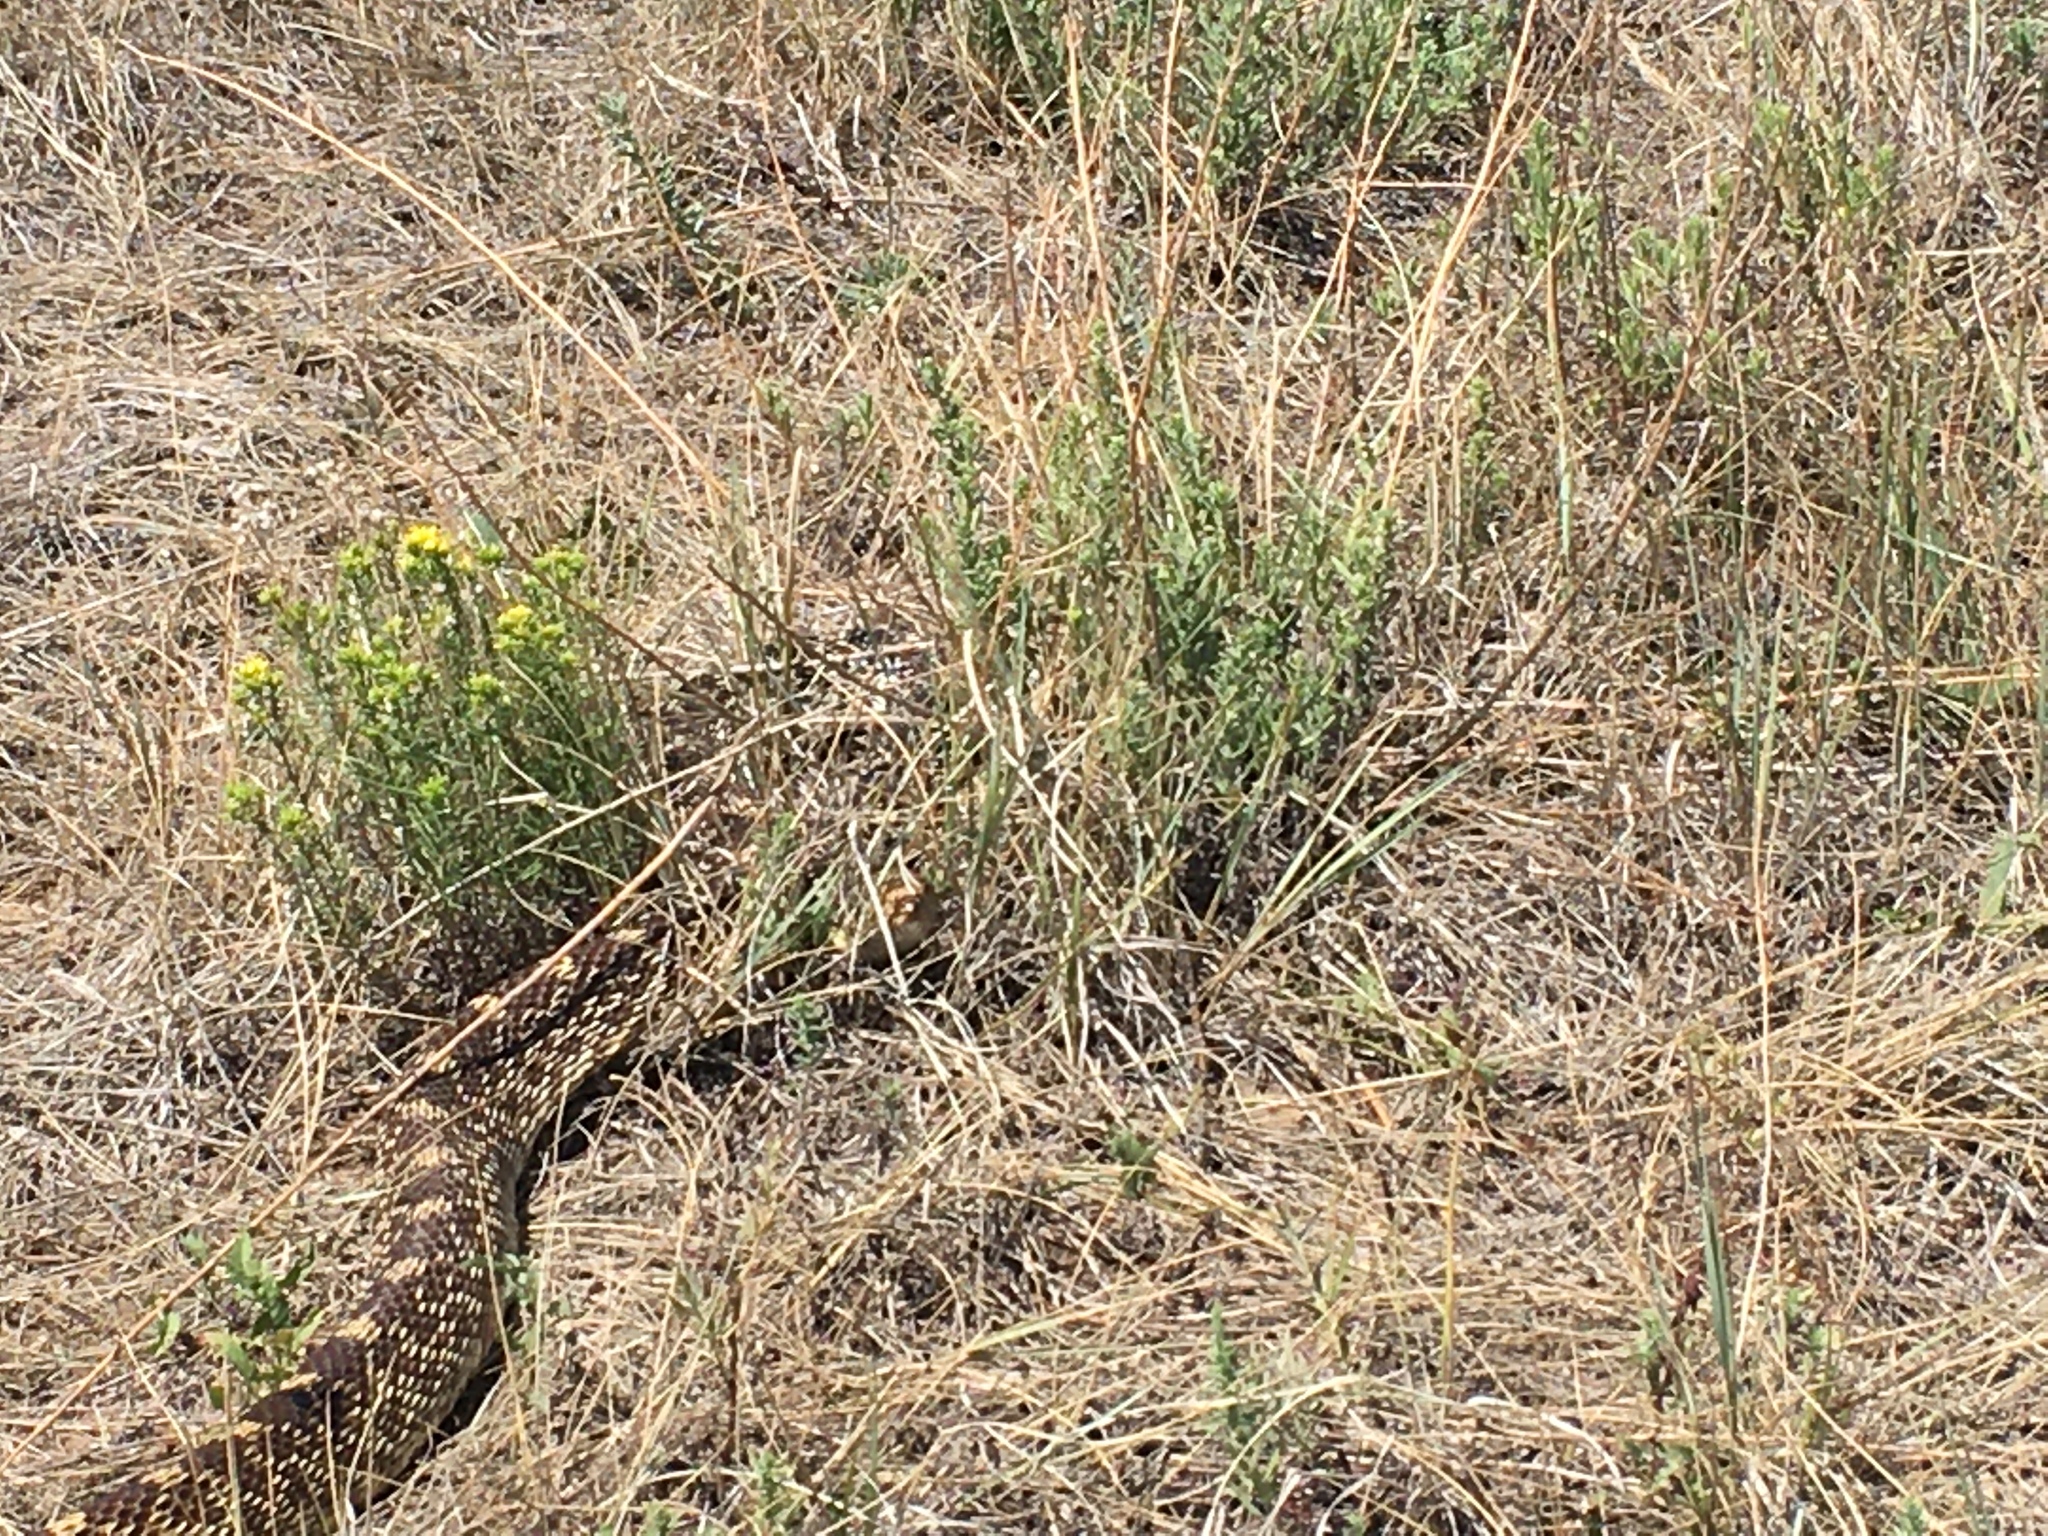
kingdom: Animalia
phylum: Chordata
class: Squamata
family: Colubridae
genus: Pituophis
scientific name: Pituophis catenifer
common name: Gopher snake
